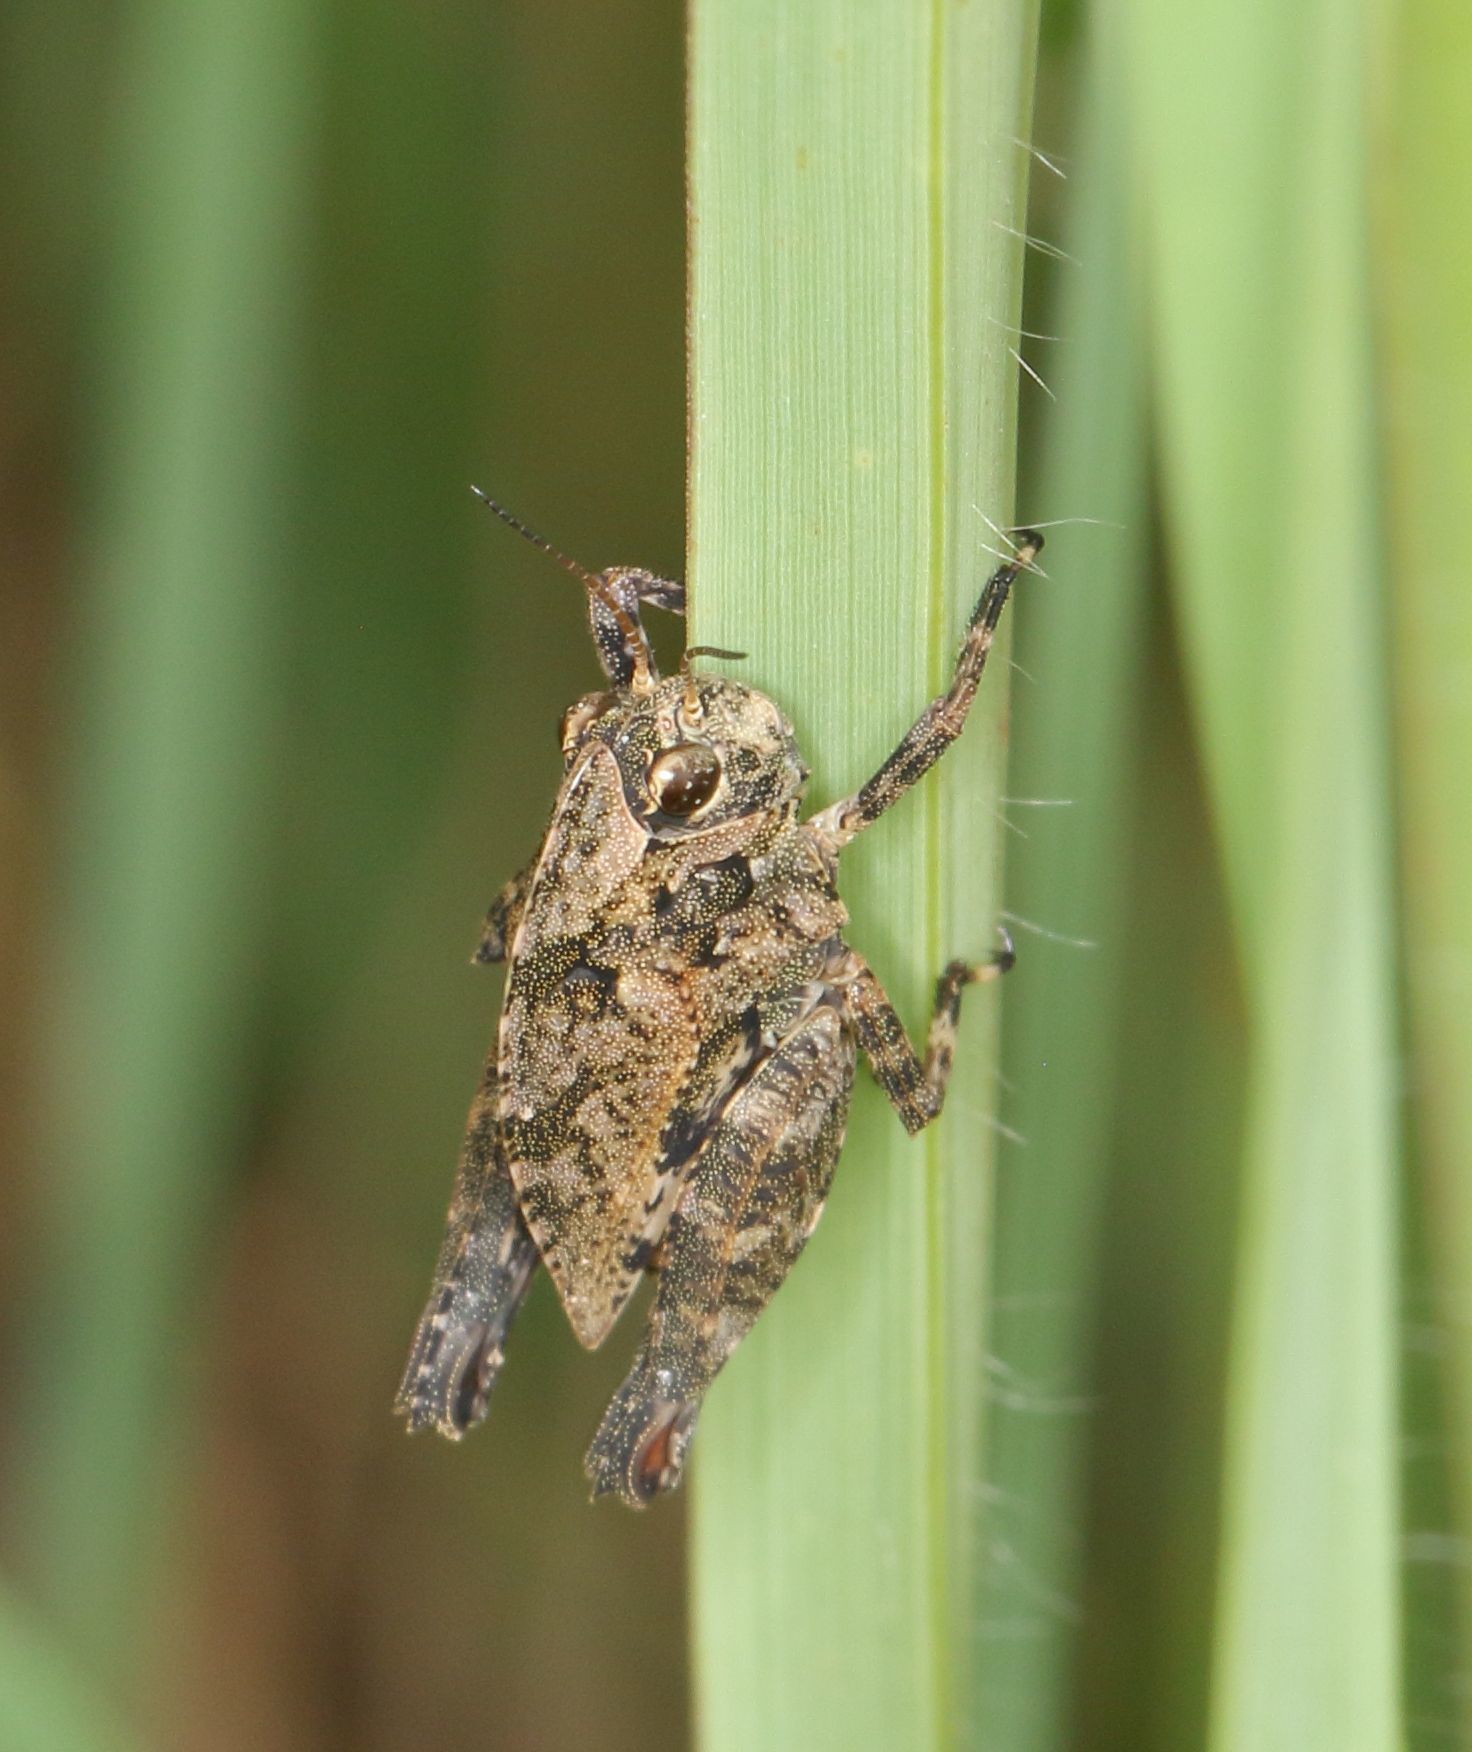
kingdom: Animalia
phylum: Arthropoda
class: Insecta
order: Orthoptera
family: Tetrigidae
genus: Phloeonotus
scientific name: Phloeonotus humilis
